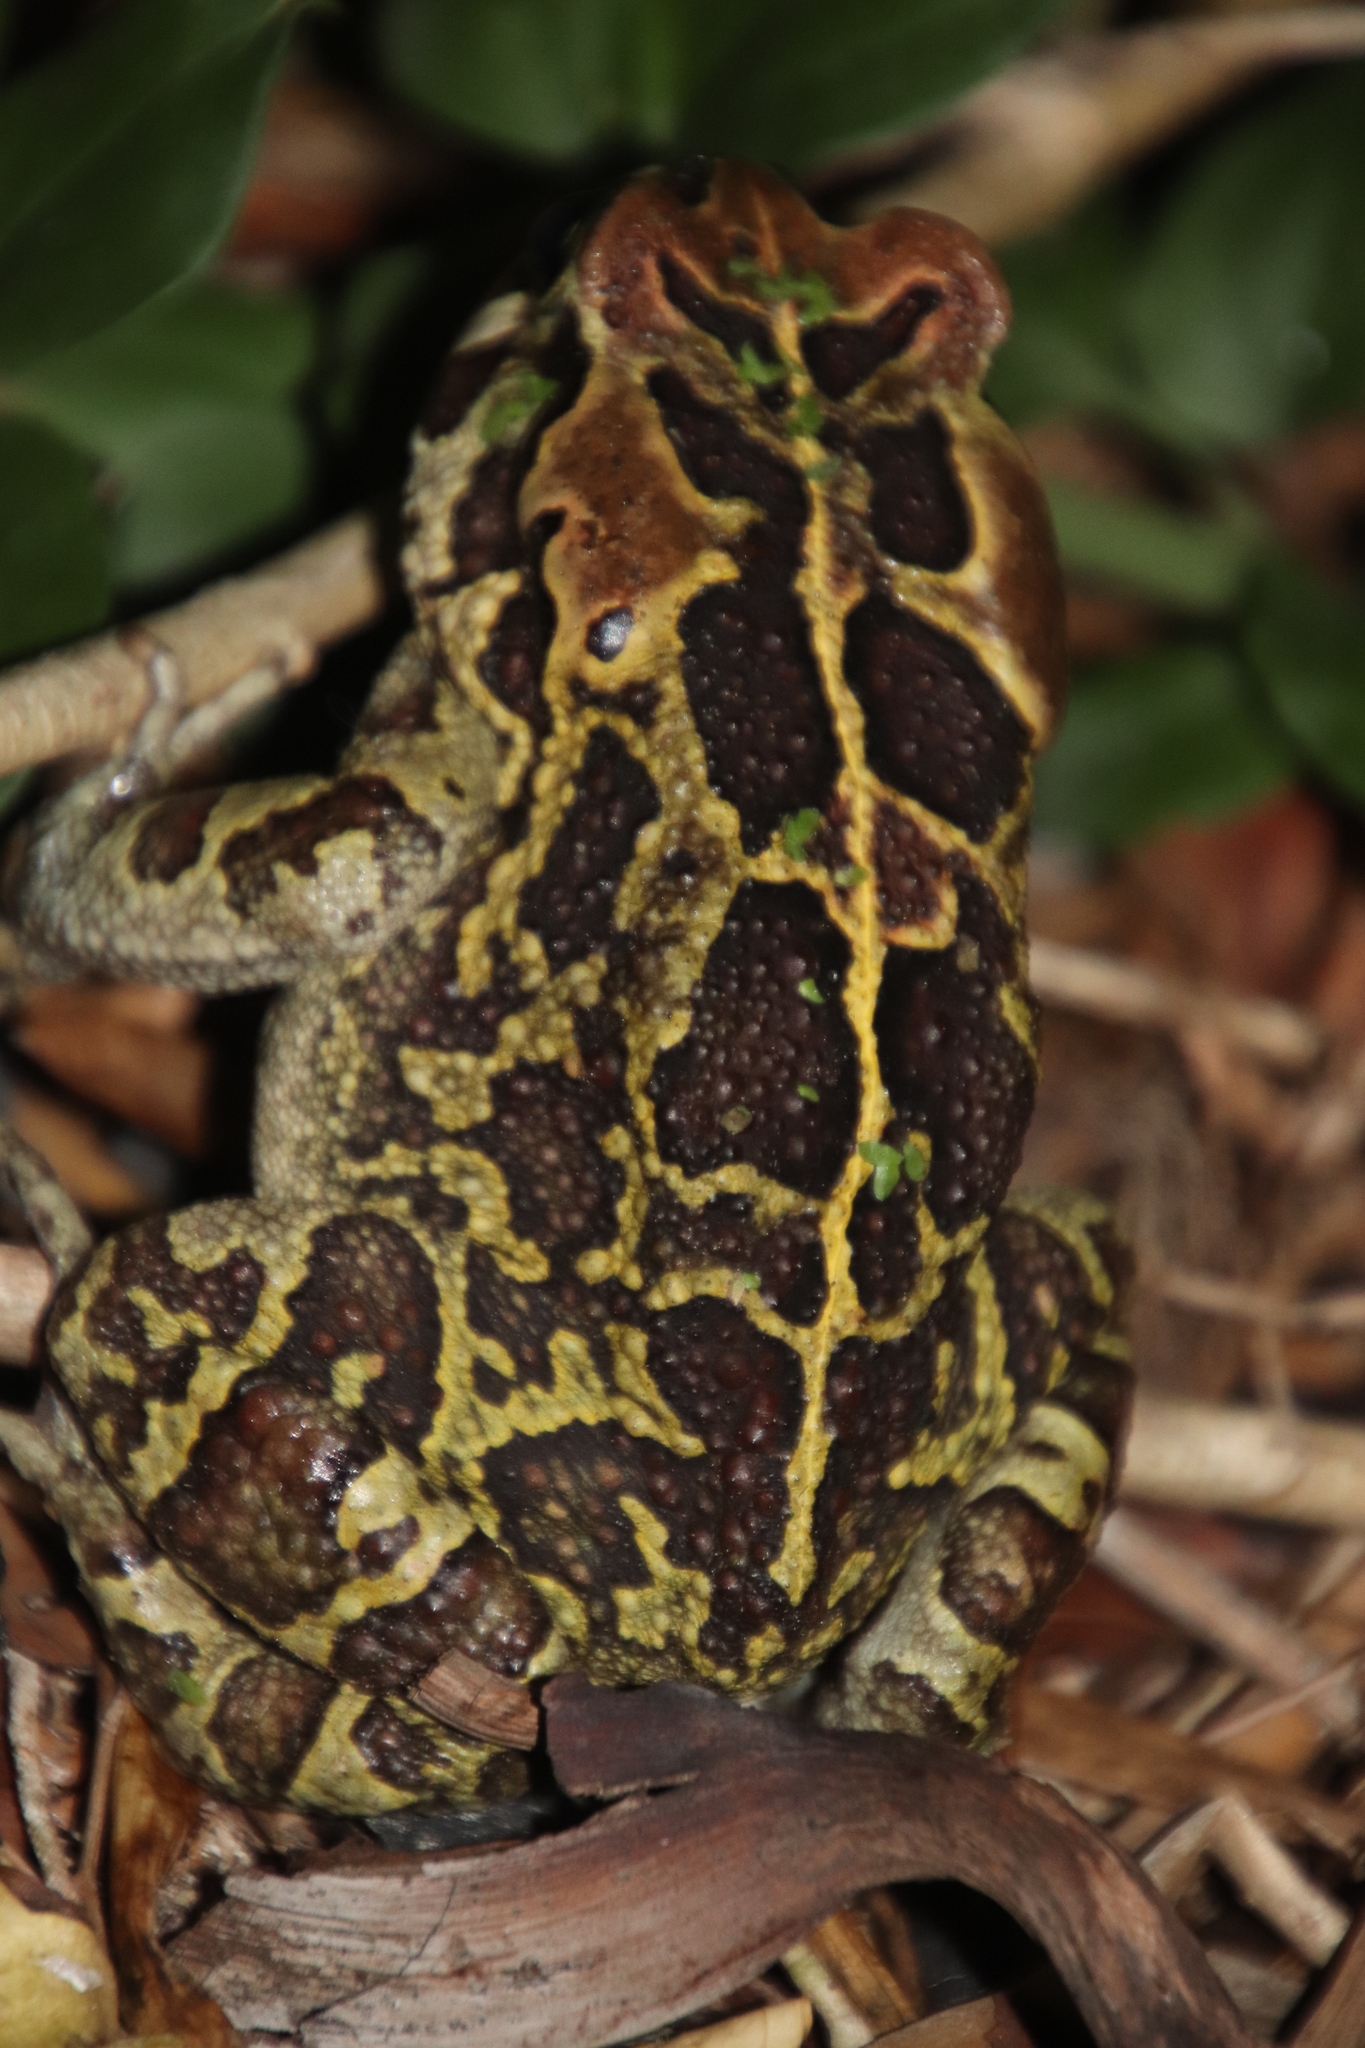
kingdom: Animalia
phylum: Chordata
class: Amphibia
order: Anura
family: Bufonidae
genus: Sclerophrys
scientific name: Sclerophrys pantherina
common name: Panther toad
